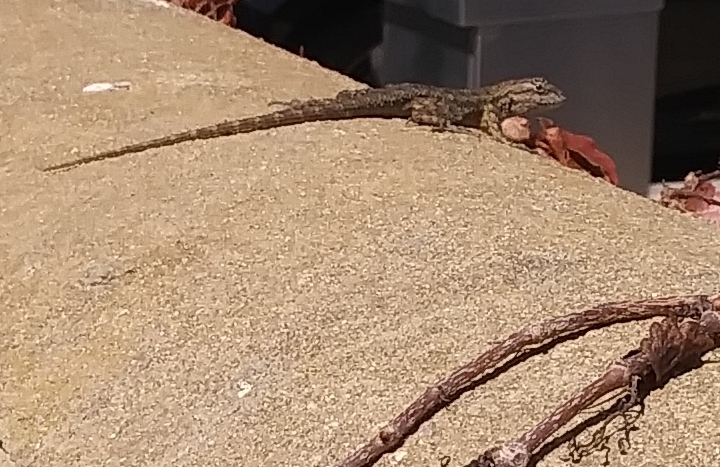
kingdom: Animalia
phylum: Chordata
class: Squamata
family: Phrynosomatidae
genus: Sceloporus
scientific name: Sceloporus occidentalis
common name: Western fence lizard
